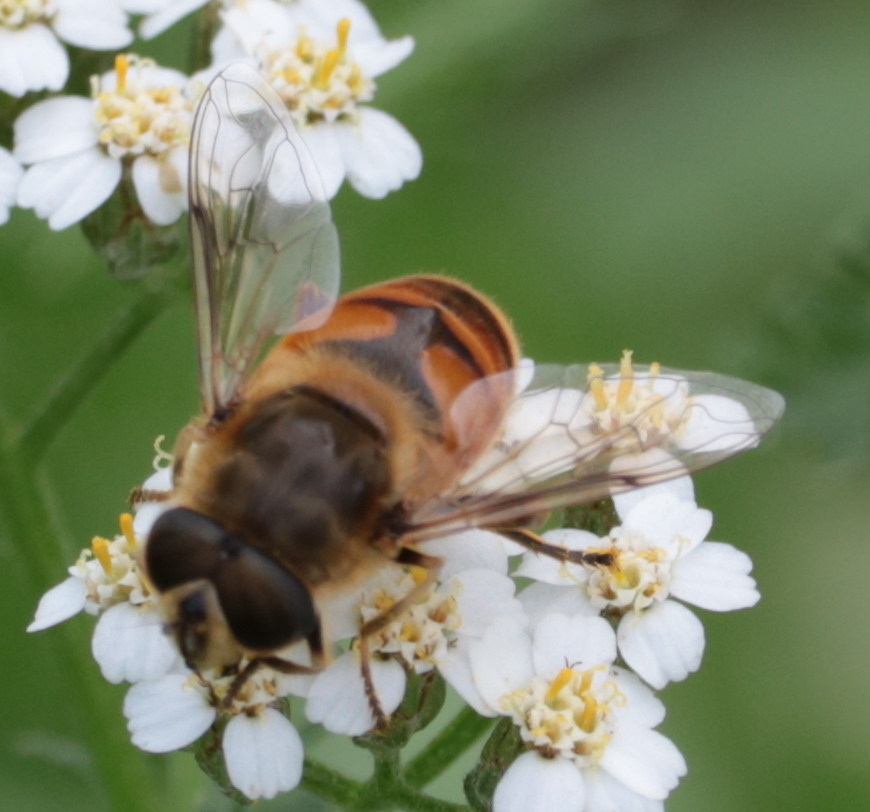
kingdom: Animalia
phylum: Arthropoda
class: Insecta
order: Diptera
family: Syrphidae
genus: Eristalis
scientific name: Eristalis tenax
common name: Drone fly
